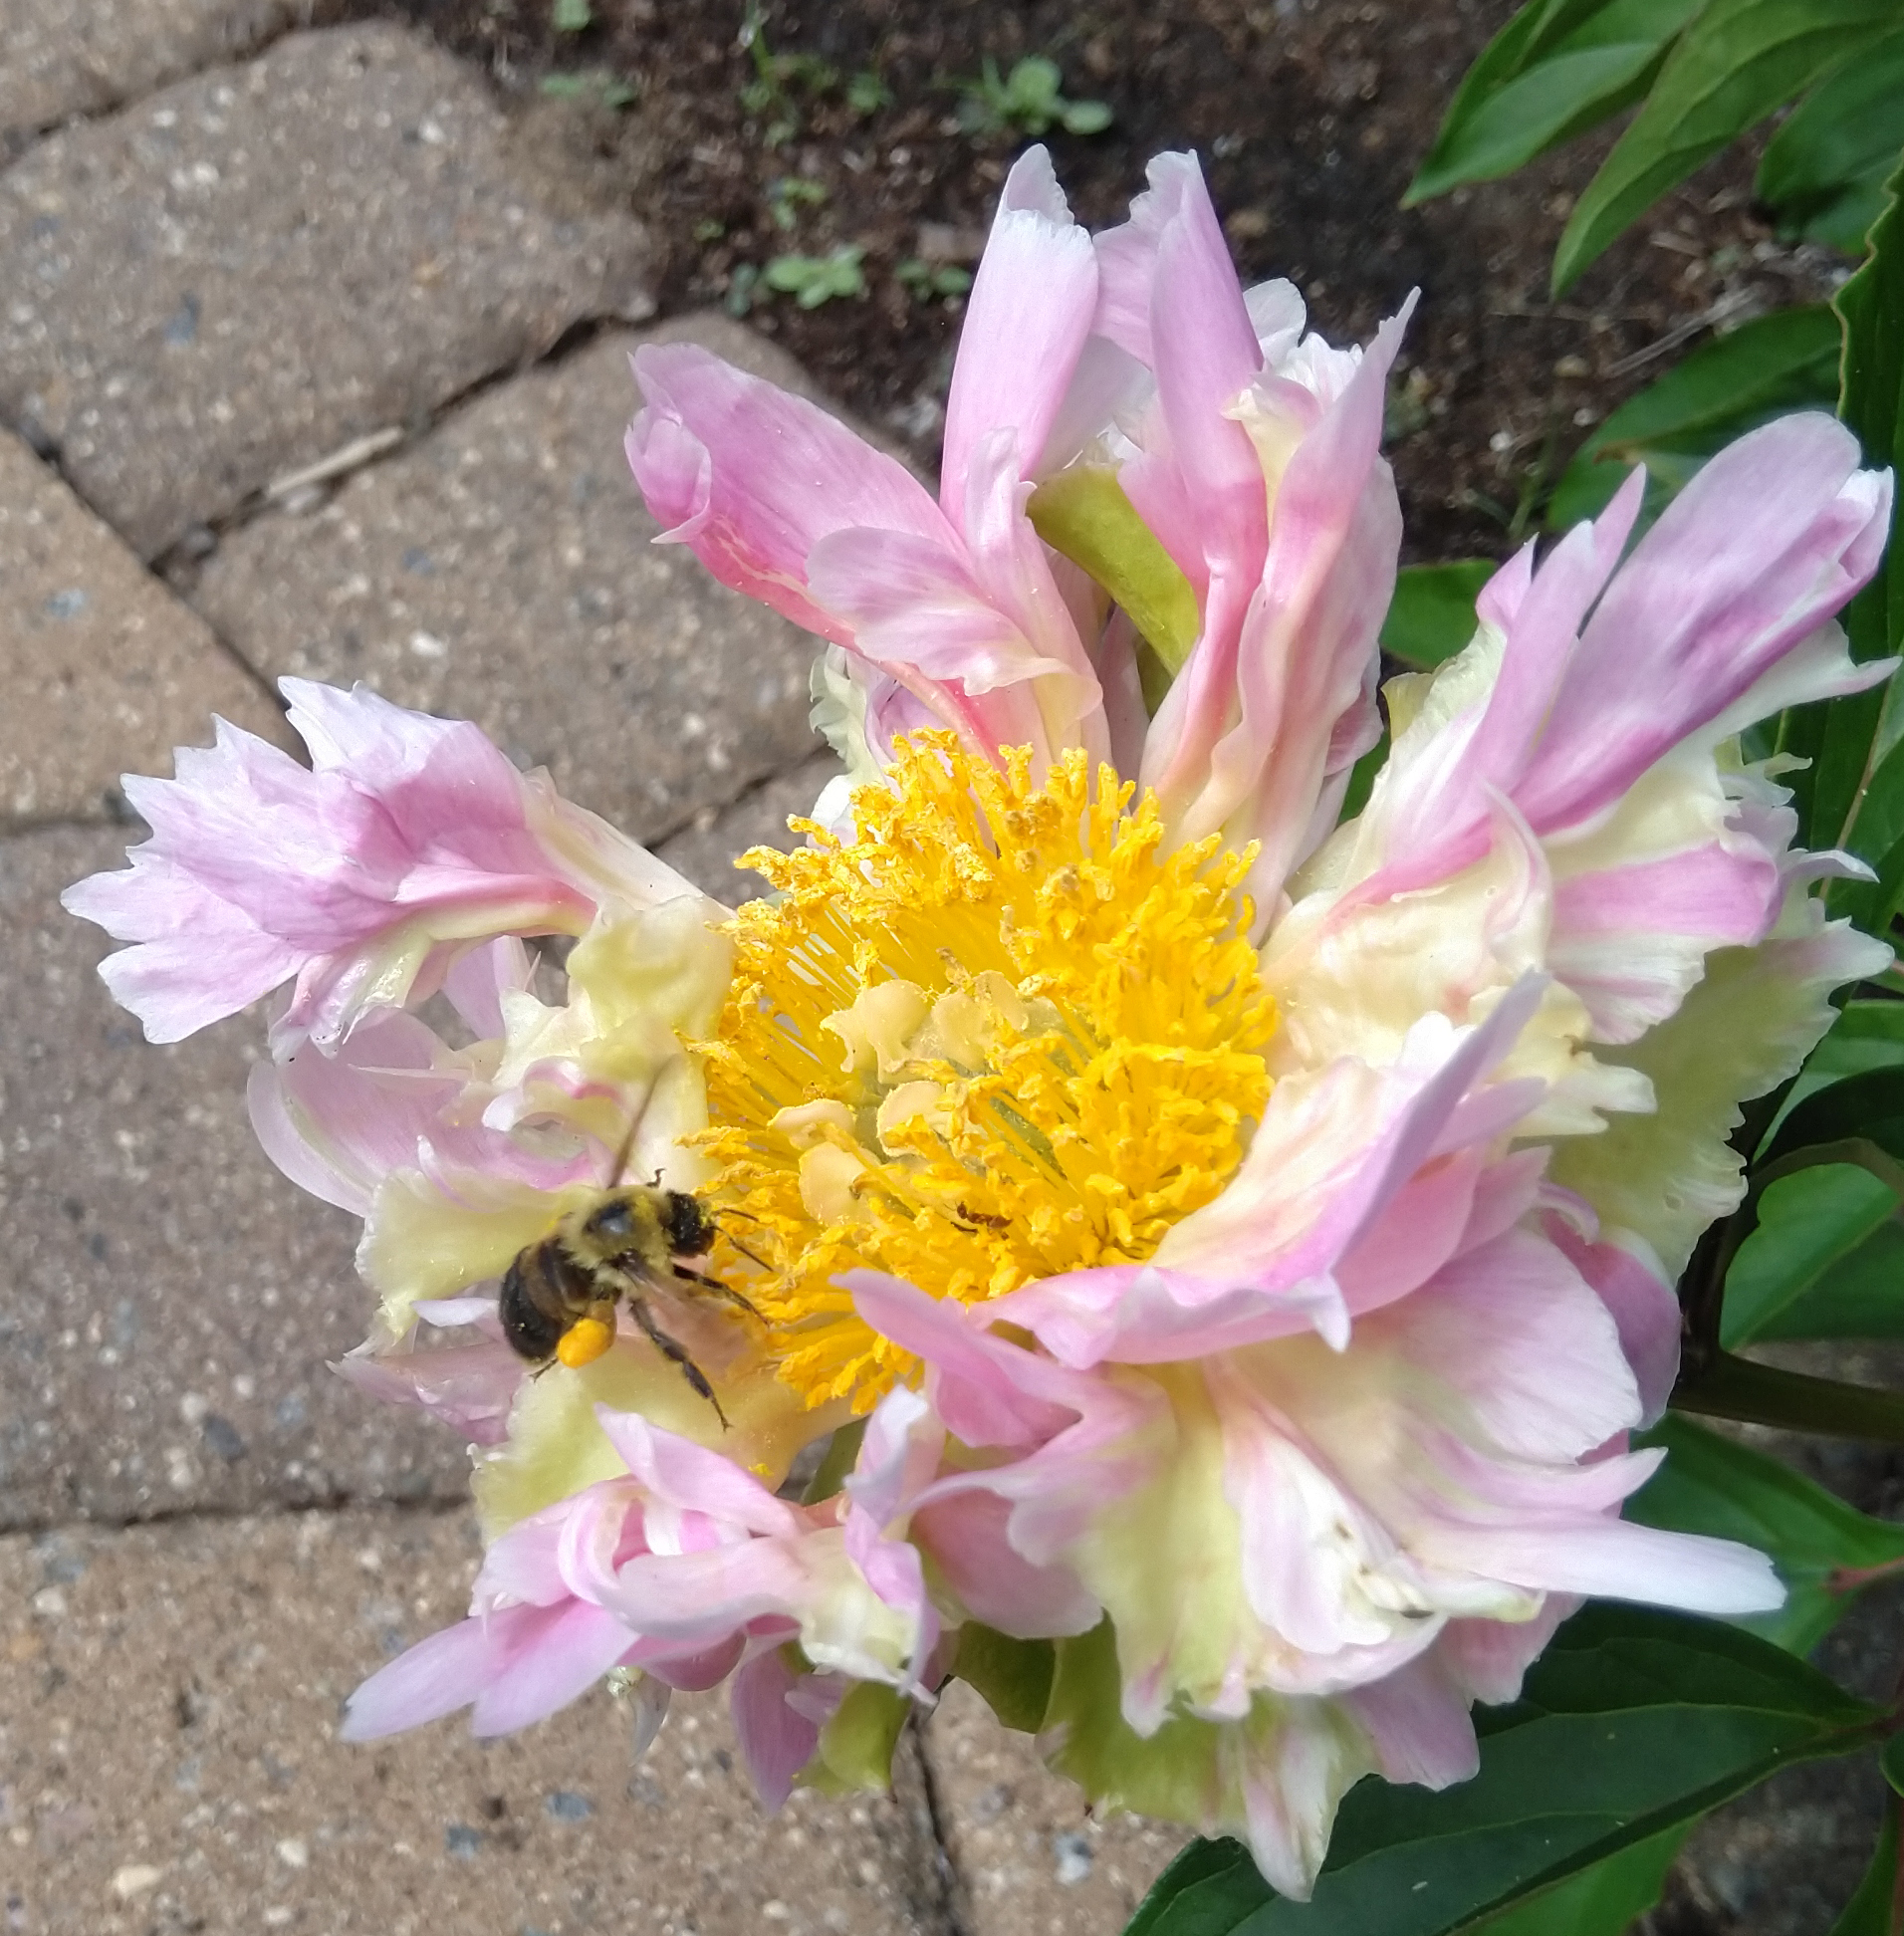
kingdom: Animalia
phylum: Arthropoda
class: Insecta
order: Hymenoptera
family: Apidae
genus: Bombus
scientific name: Bombus griseocollis
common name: Brown-belted bumble bee
